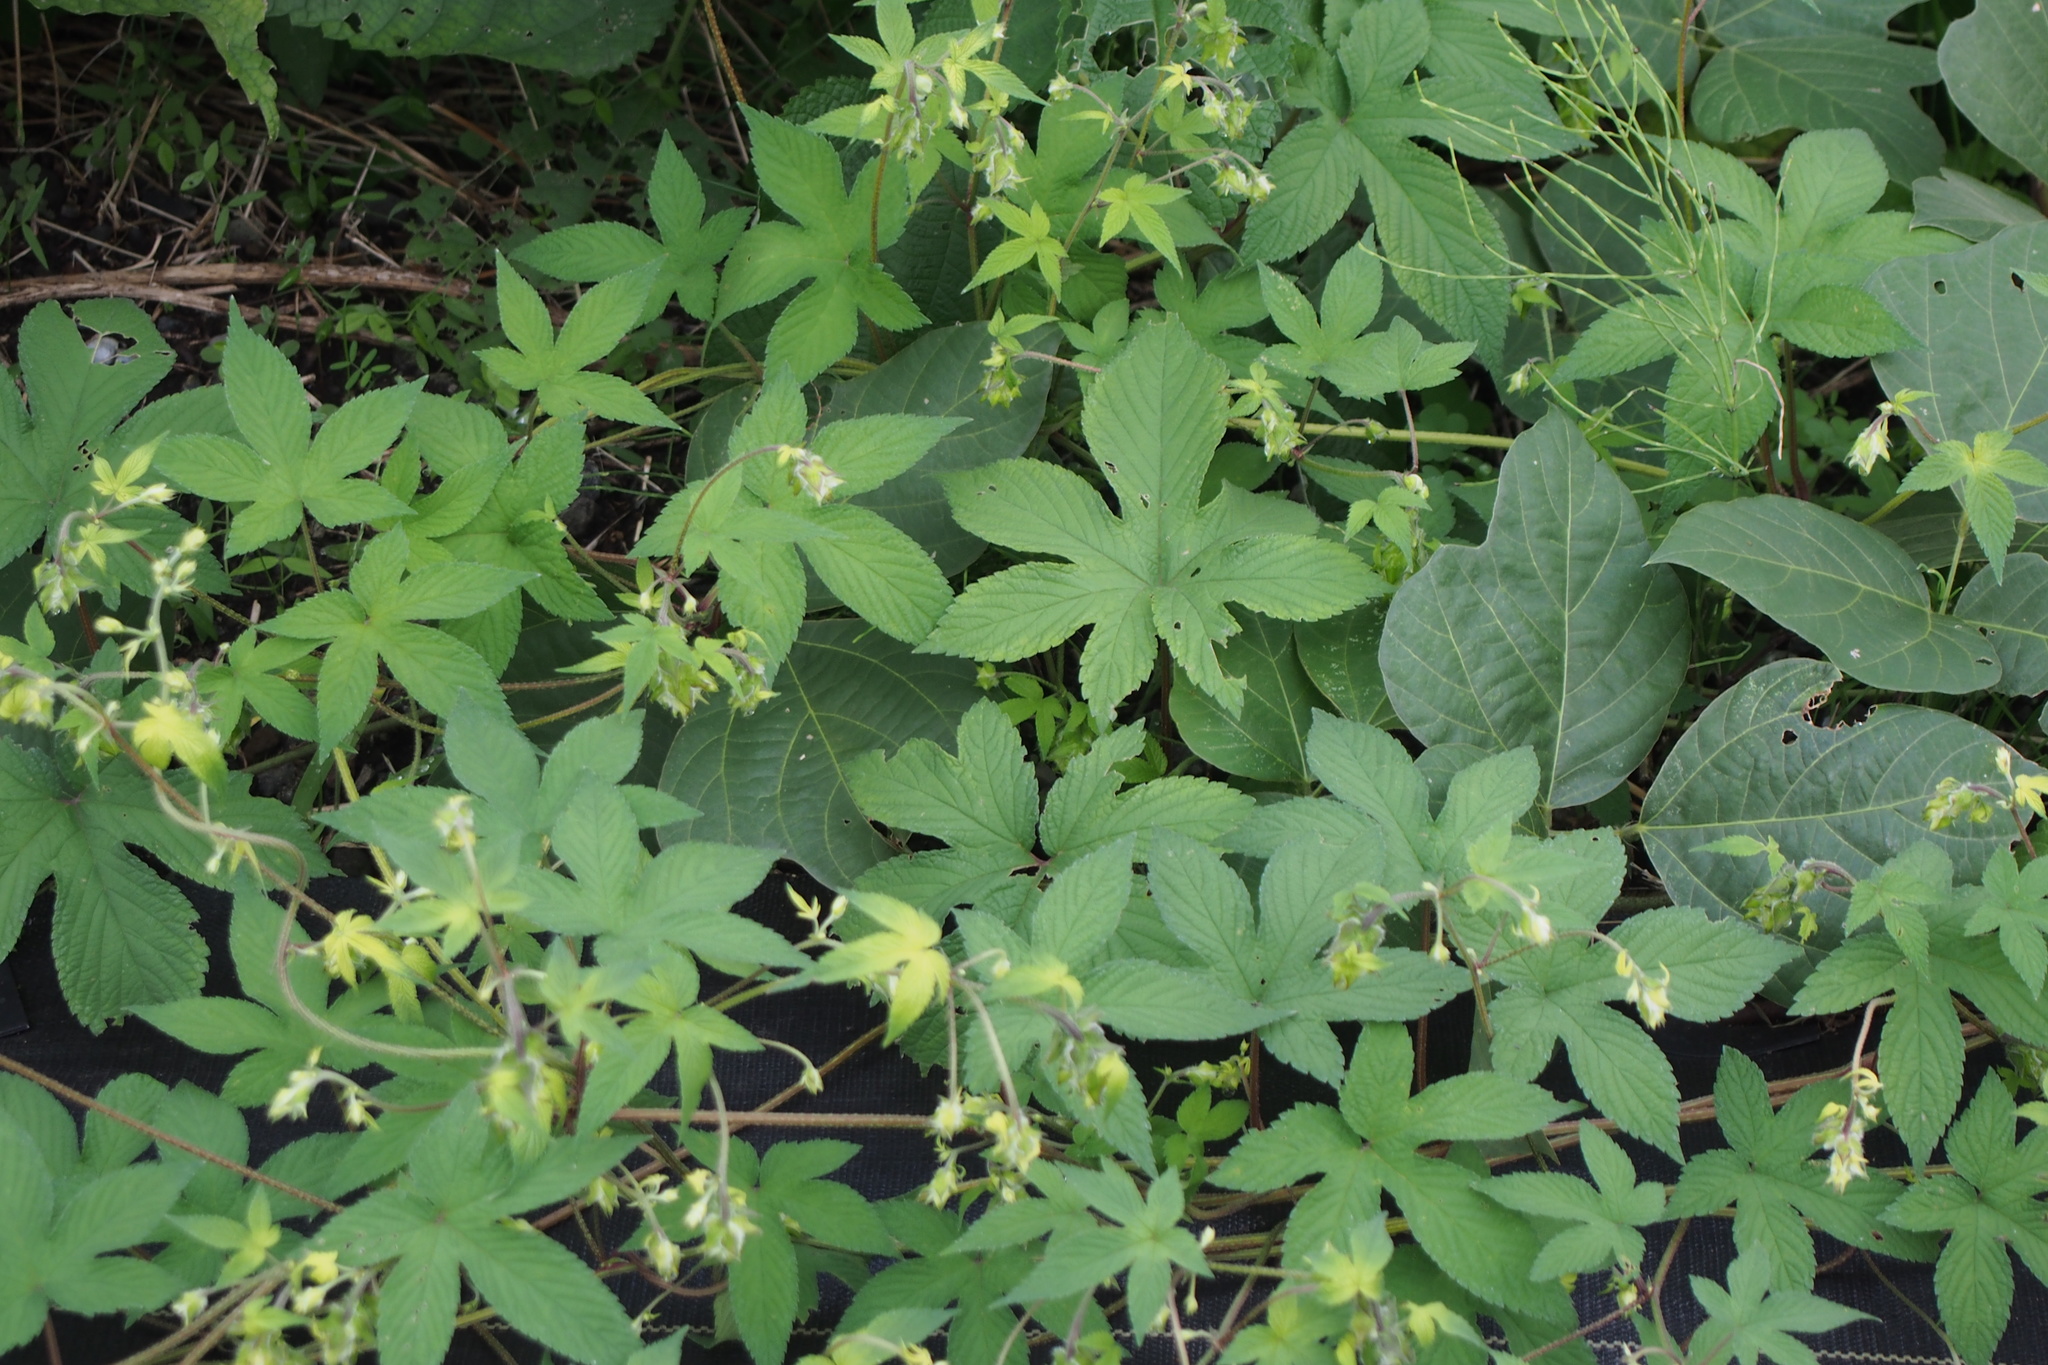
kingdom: Plantae
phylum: Tracheophyta
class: Magnoliopsida
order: Rosales
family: Cannabaceae
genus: Humulus
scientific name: Humulus scandens
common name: Japanese hop
